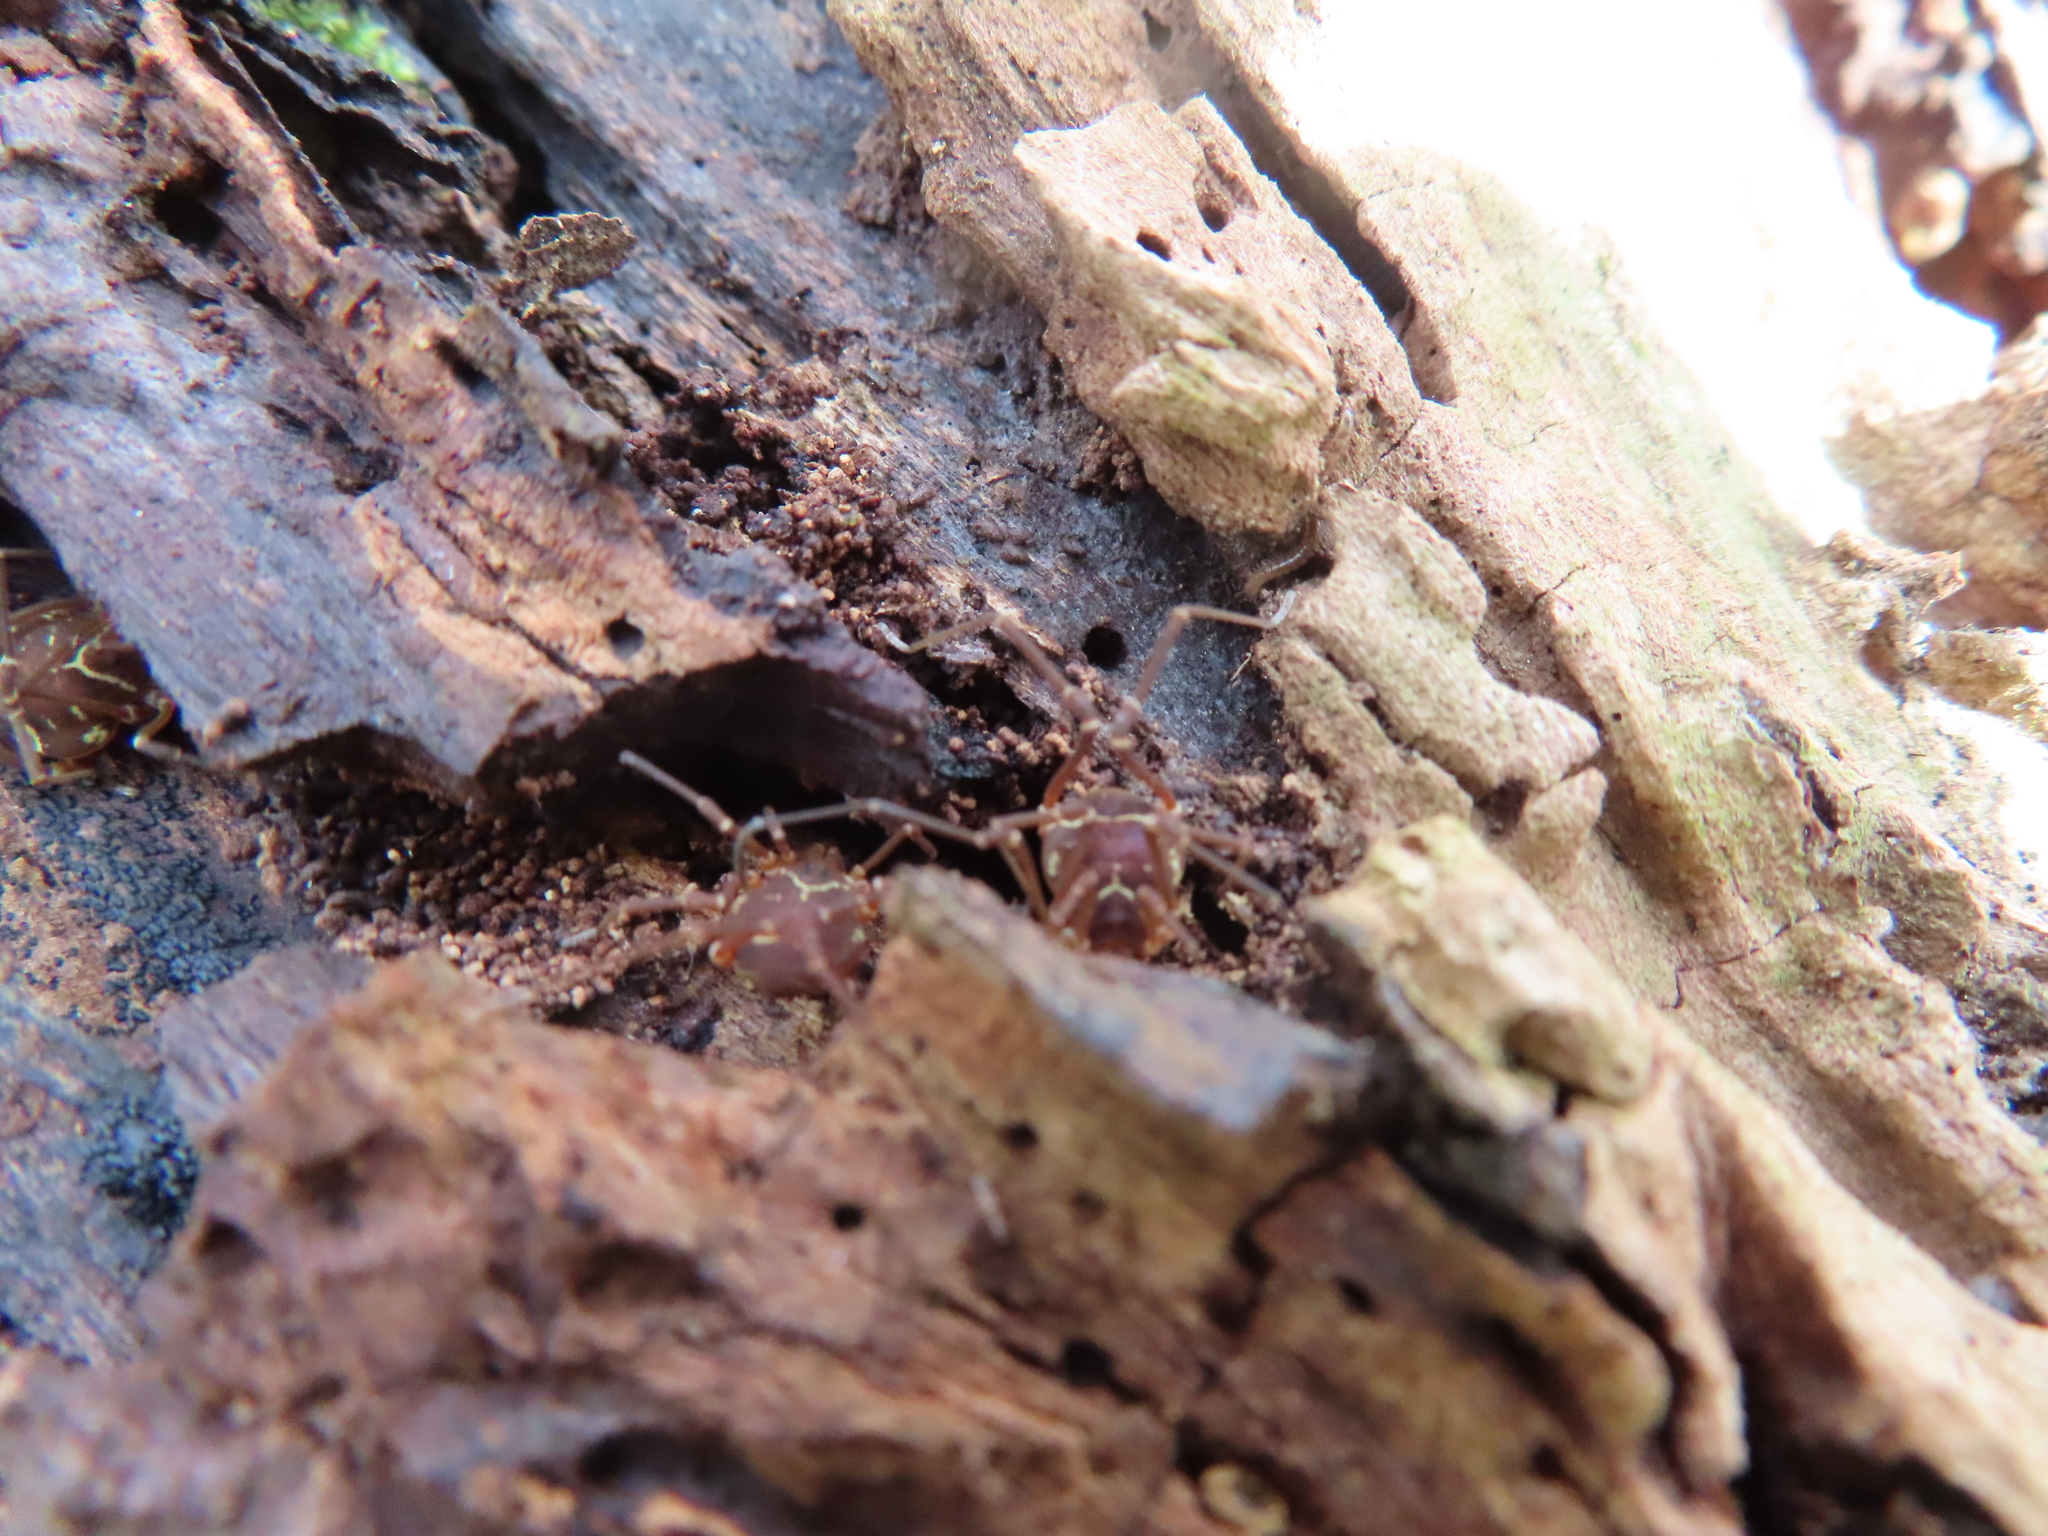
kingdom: Animalia
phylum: Arthropoda
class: Arachnida
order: Opiliones
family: Cosmetidae
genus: Libitioides
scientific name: Libitioides sayi
